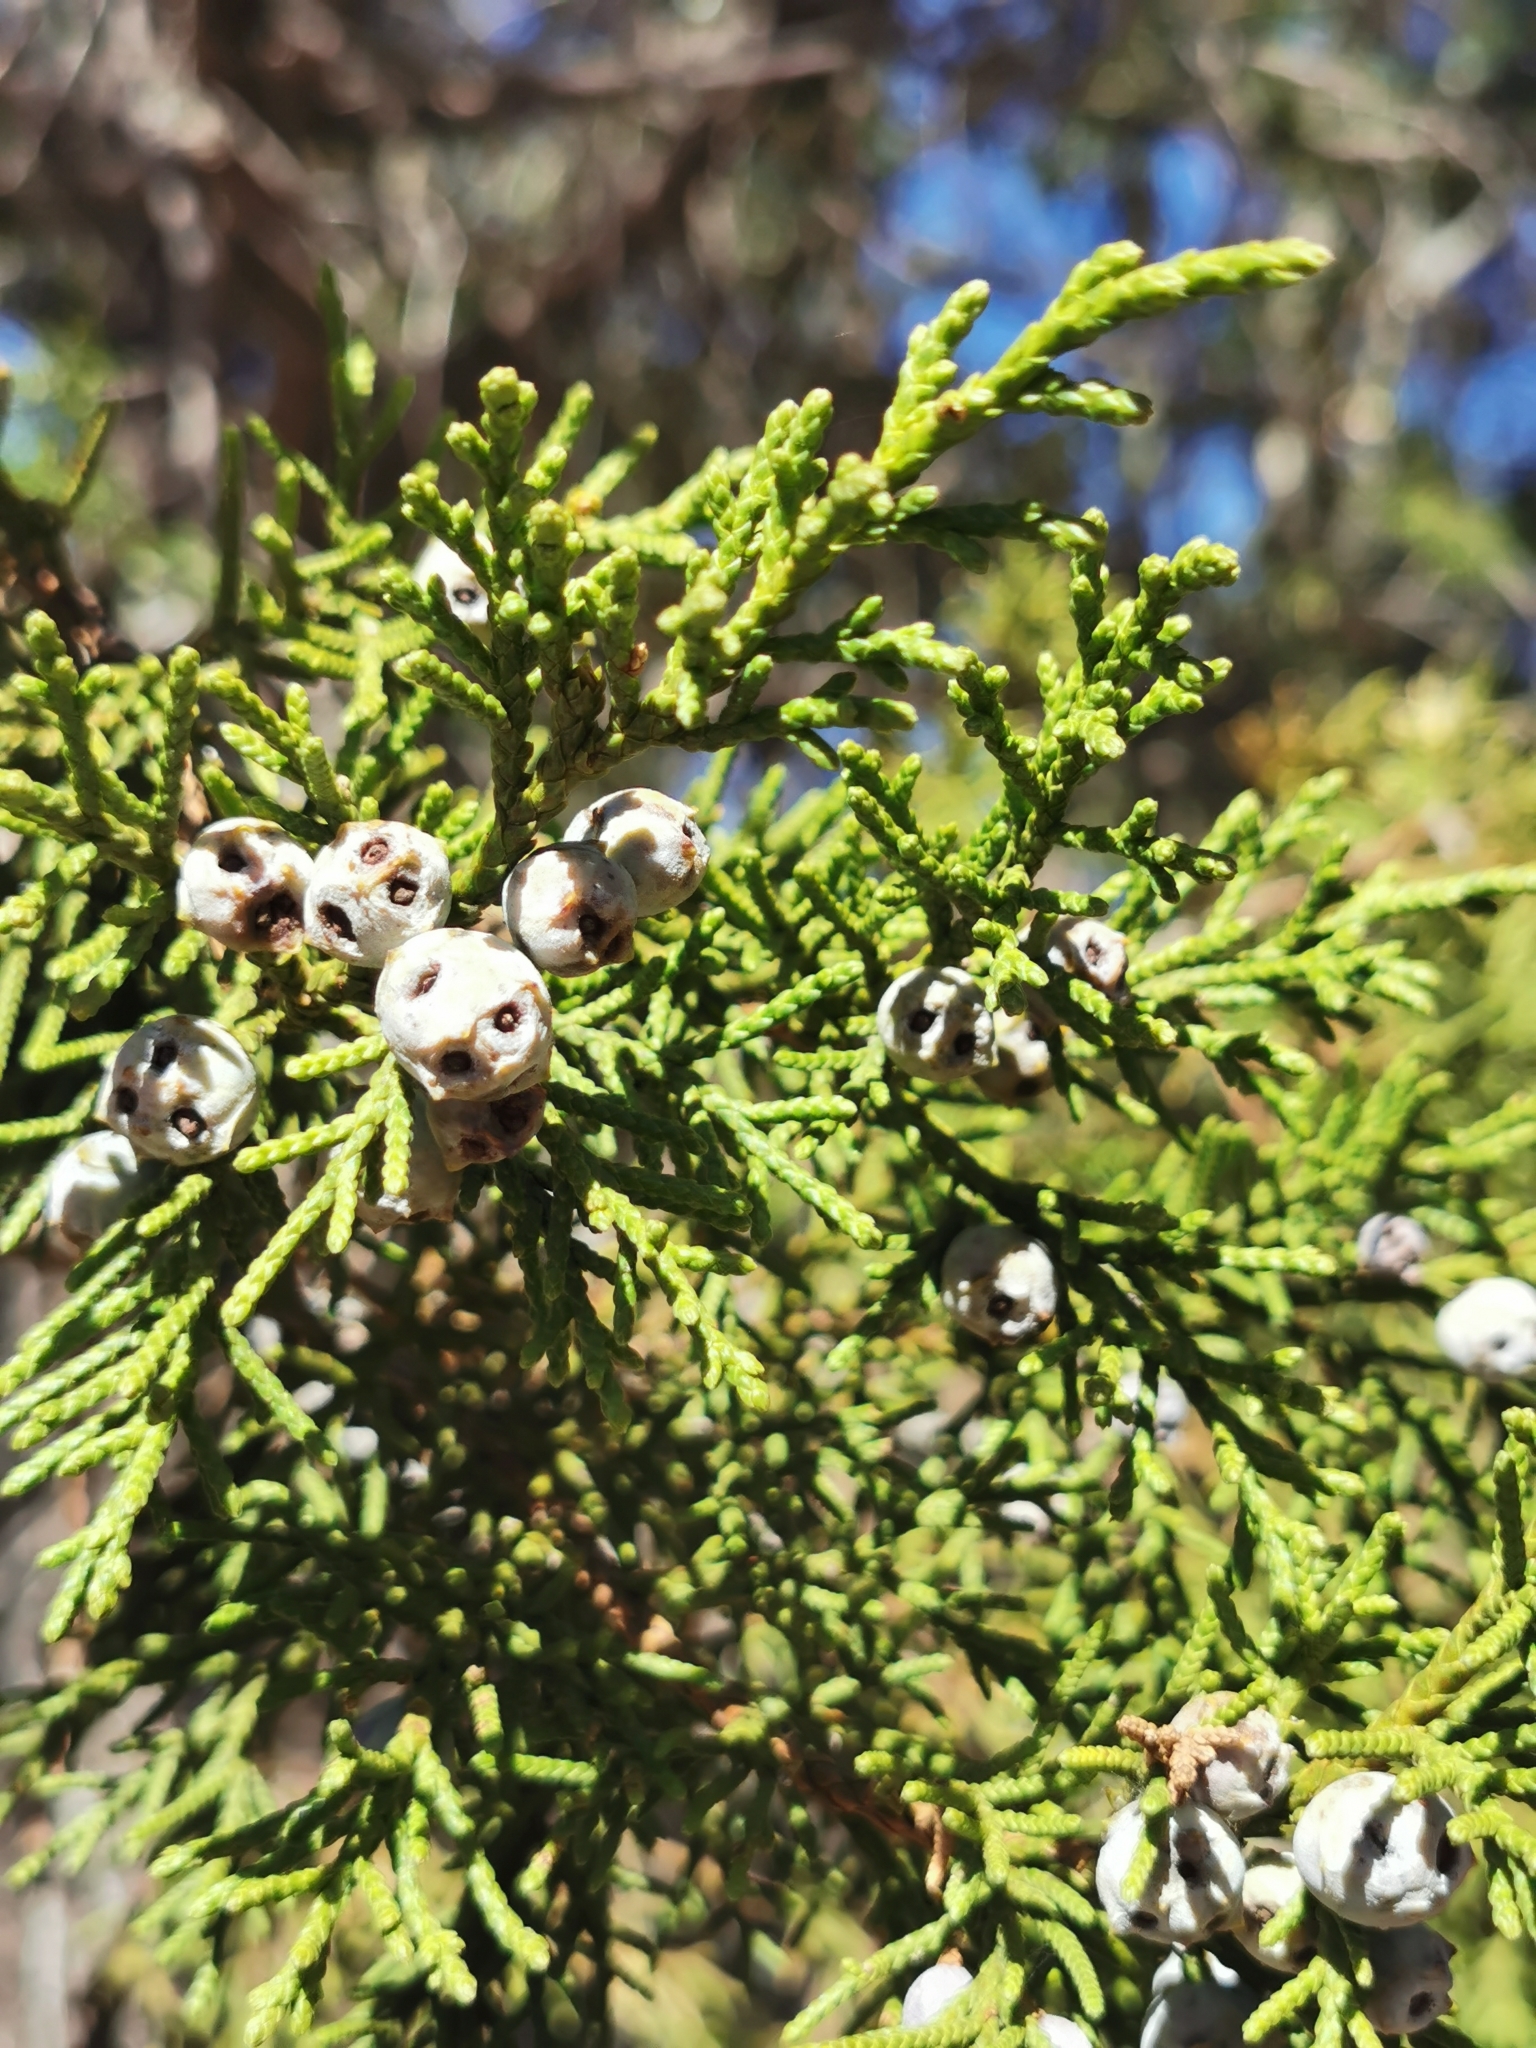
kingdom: Plantae
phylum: Tracheophyta
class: Pinopsida
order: Pinales
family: Cupressaceae
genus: Juniperus
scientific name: Juniperus deppeana
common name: Alligator juniper
